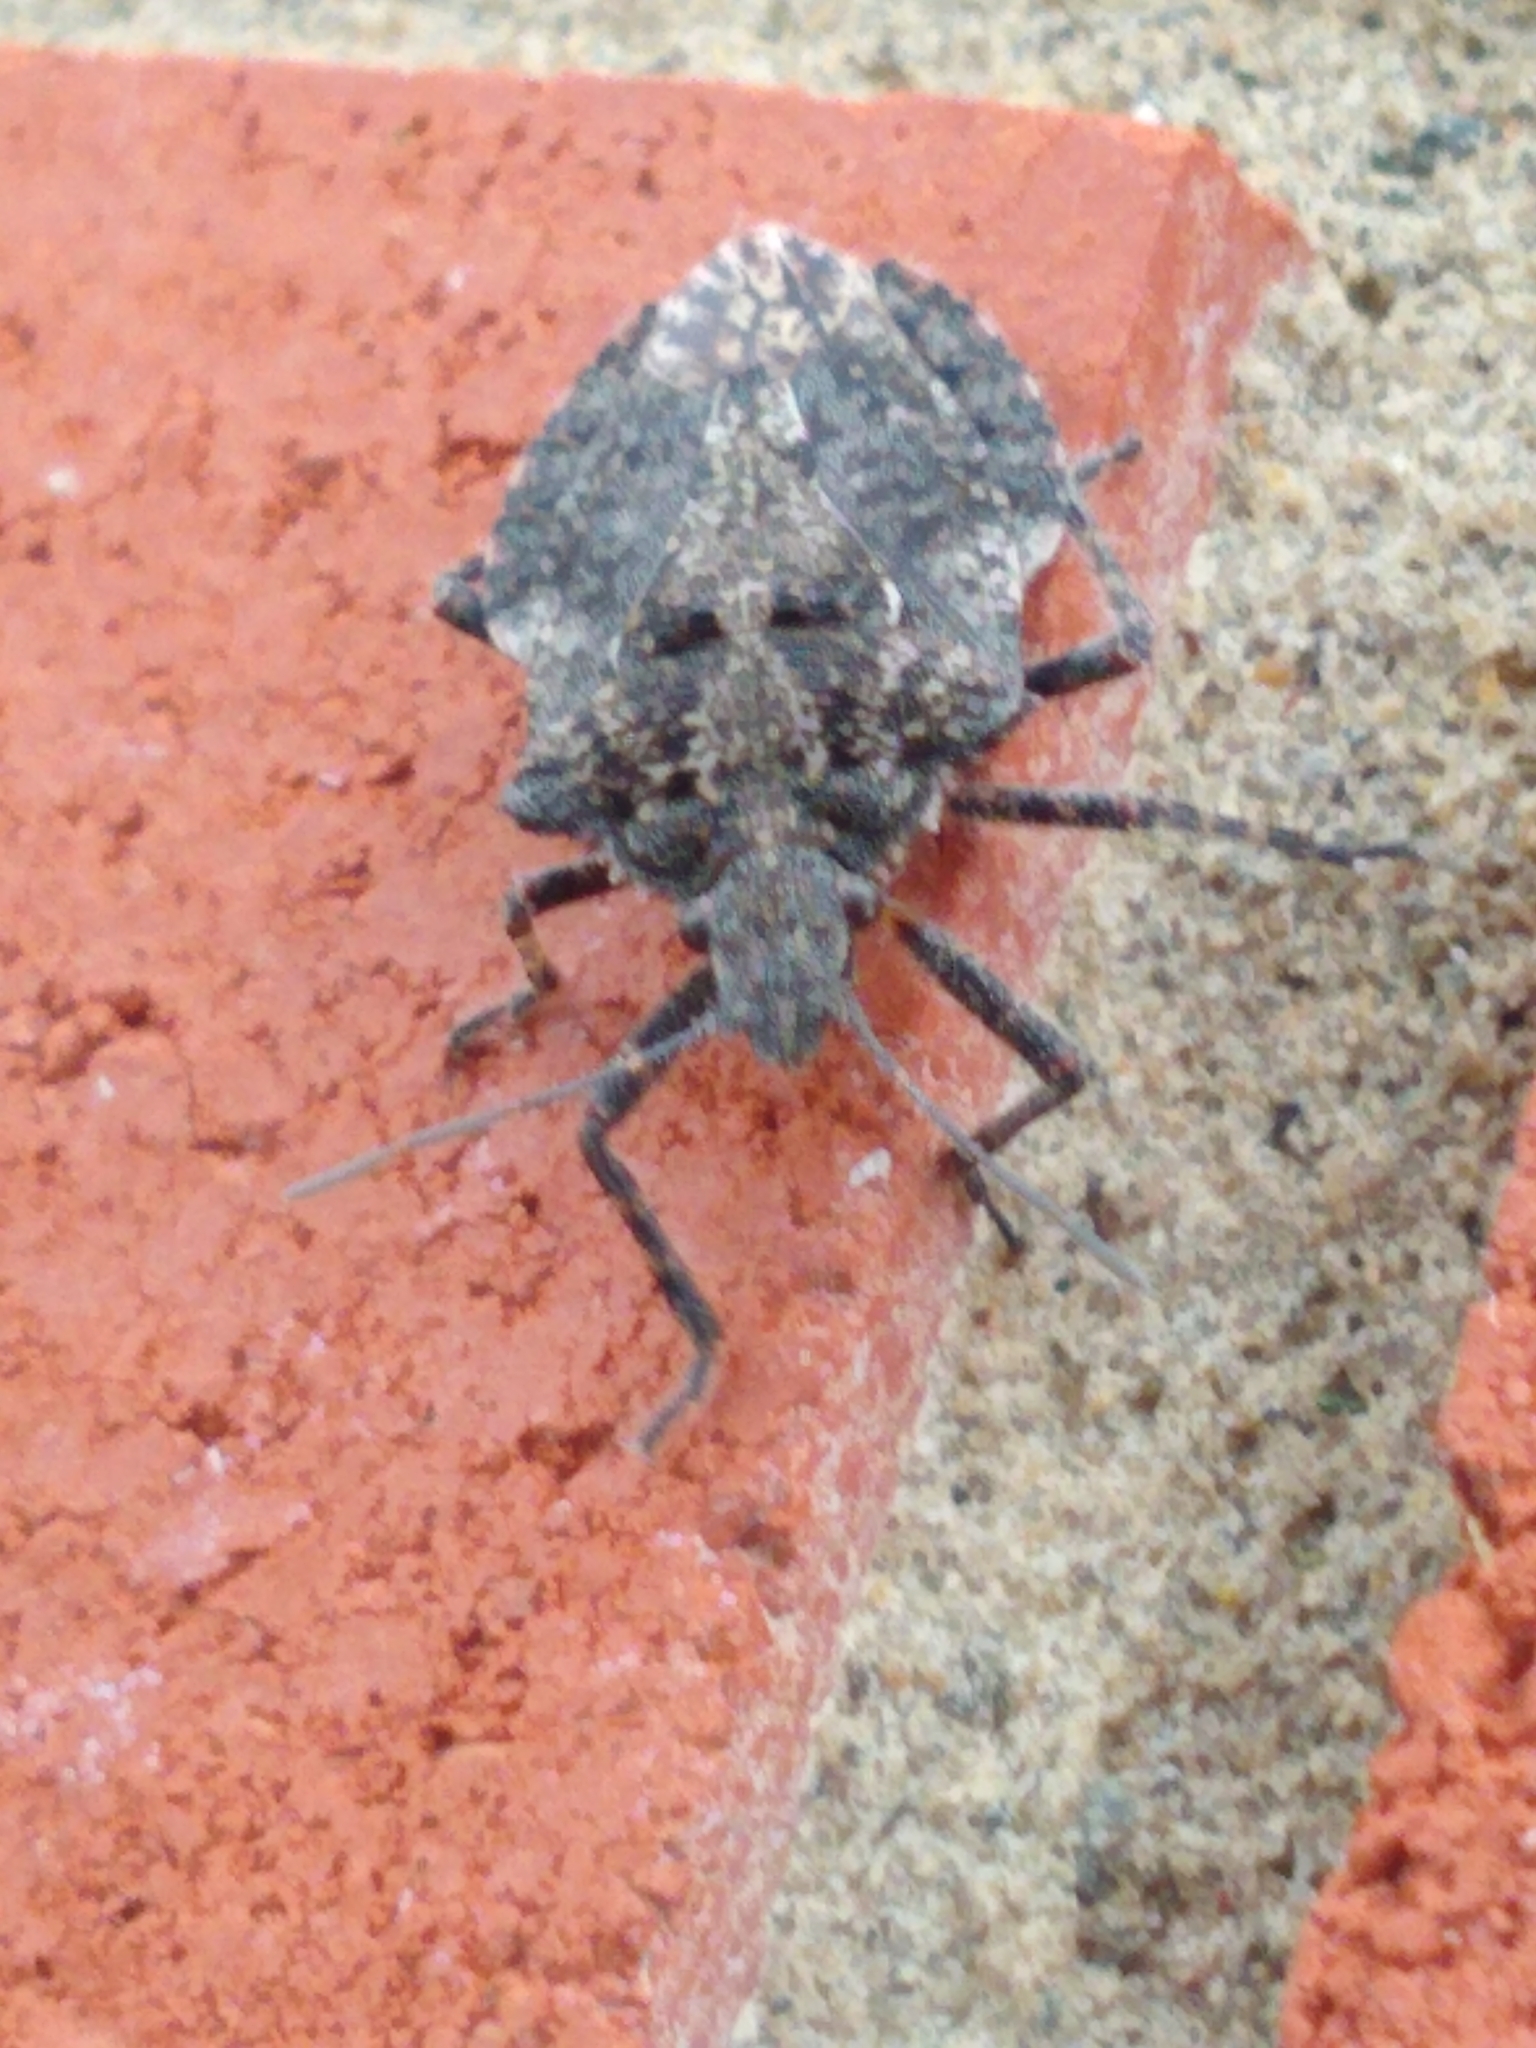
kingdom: Animalia
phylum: Arthropoda
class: Insecta
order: Hemiptera
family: Pentatomidae
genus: Brochymena
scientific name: Brochymena quadripustulata
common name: Four-humped stink bug
